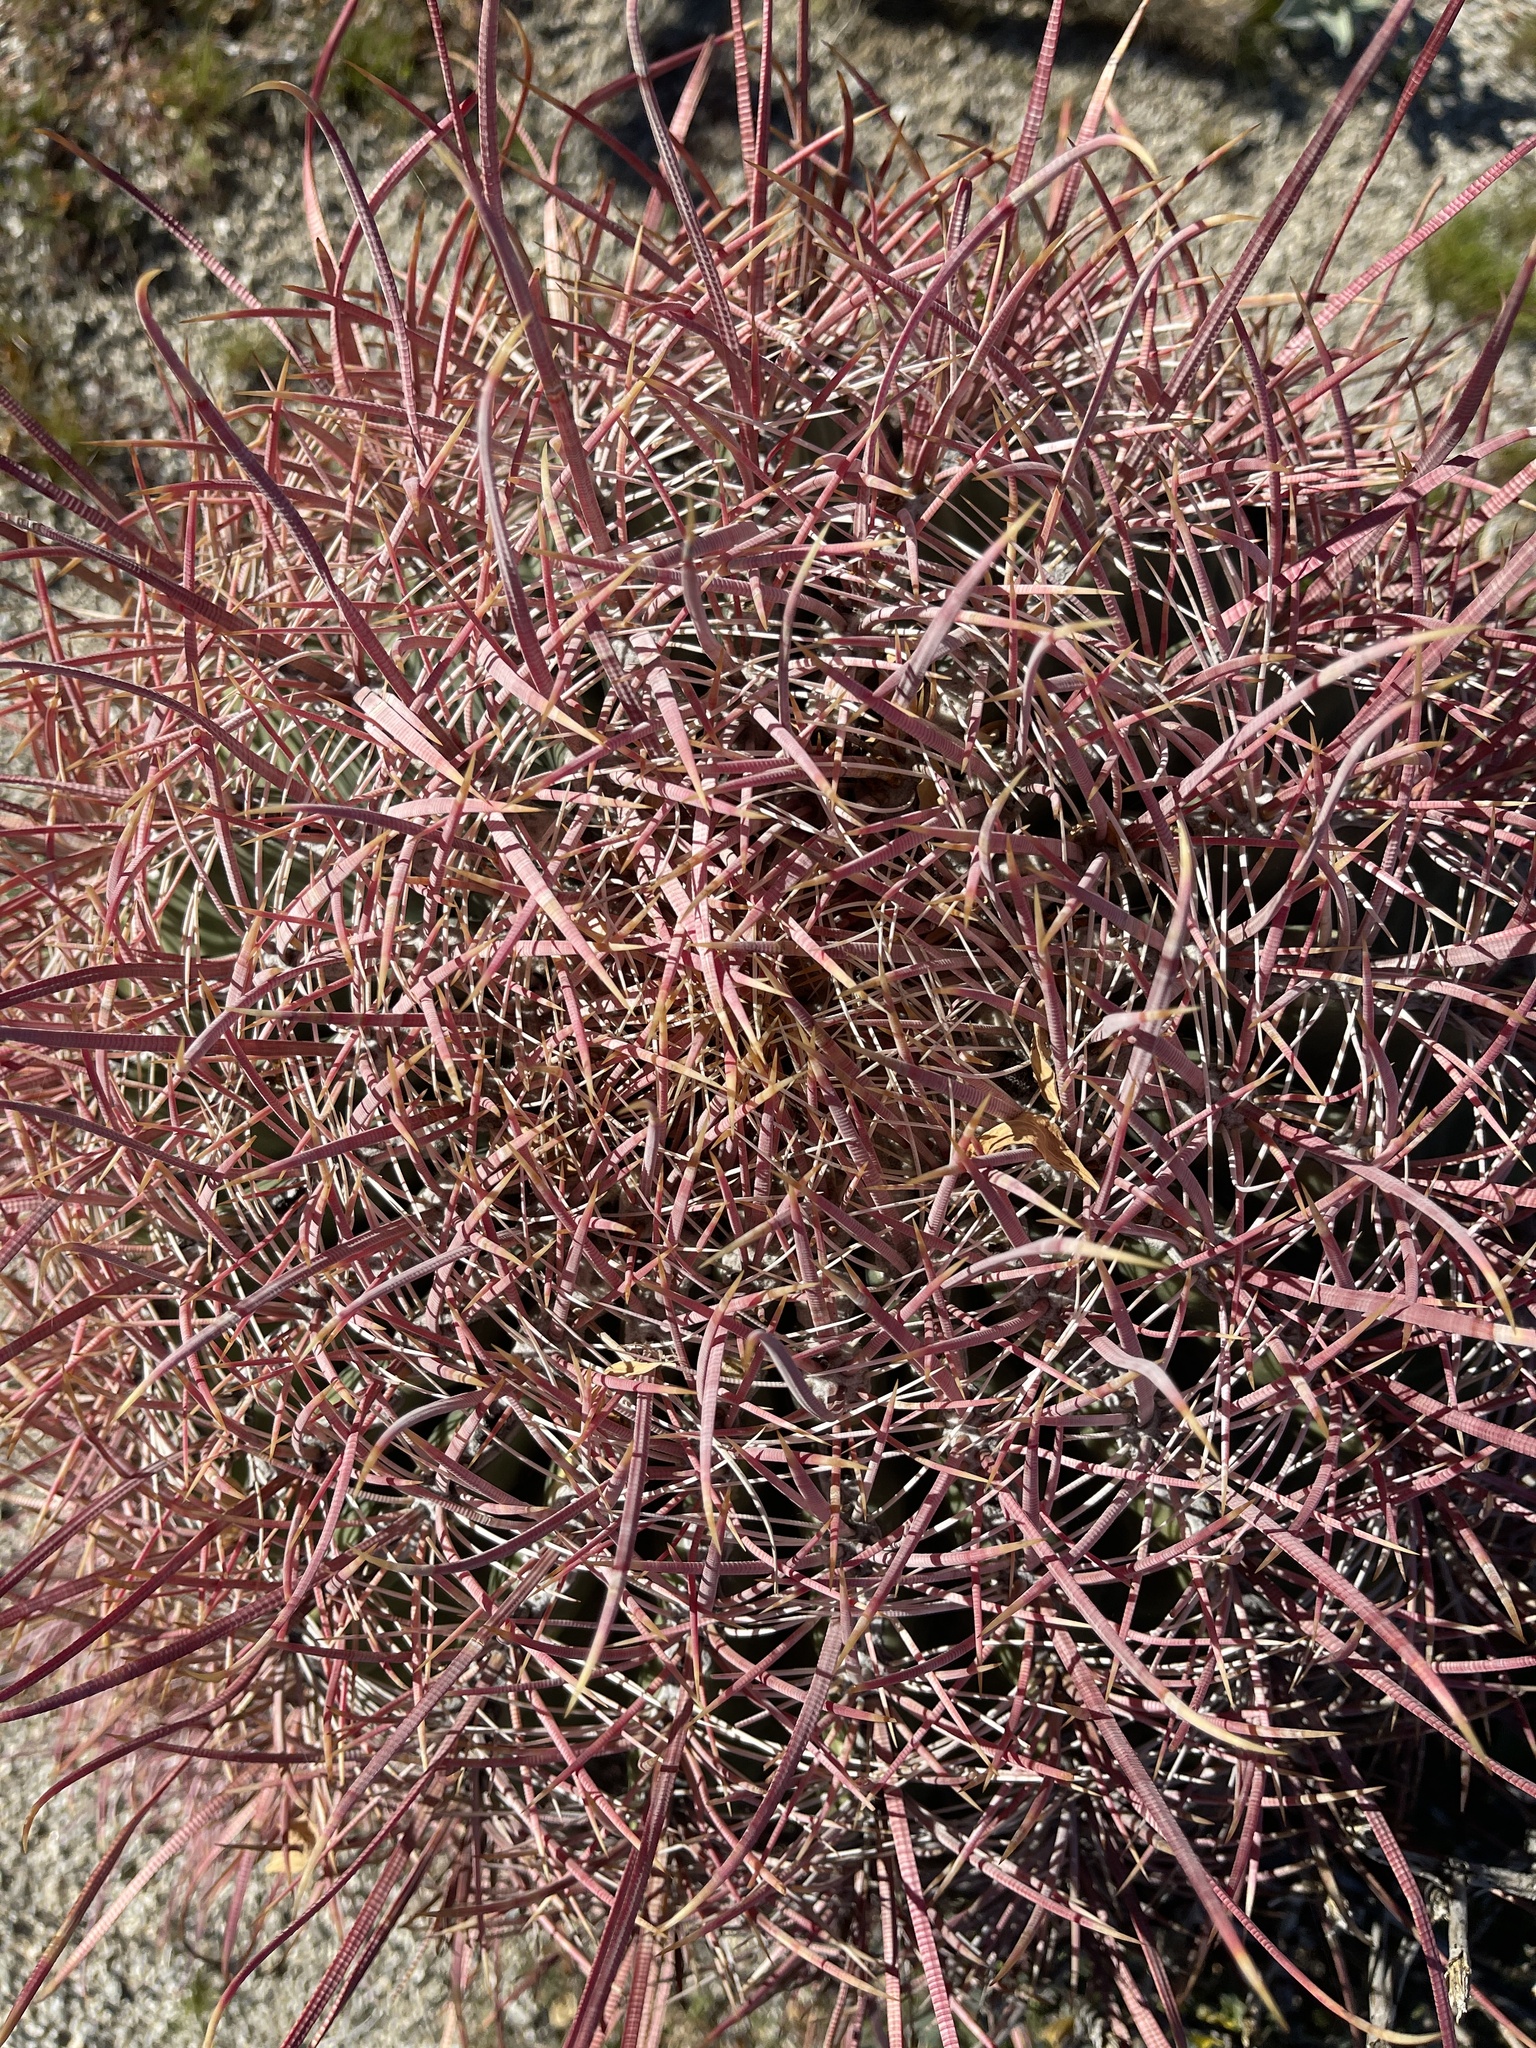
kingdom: Plantae
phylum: Tracheophyta
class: Magnoliopsida
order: Caryophyllales
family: Cactaceae
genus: Ferocactus
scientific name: Ferocactus cylindraceus
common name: California barrel cactus
